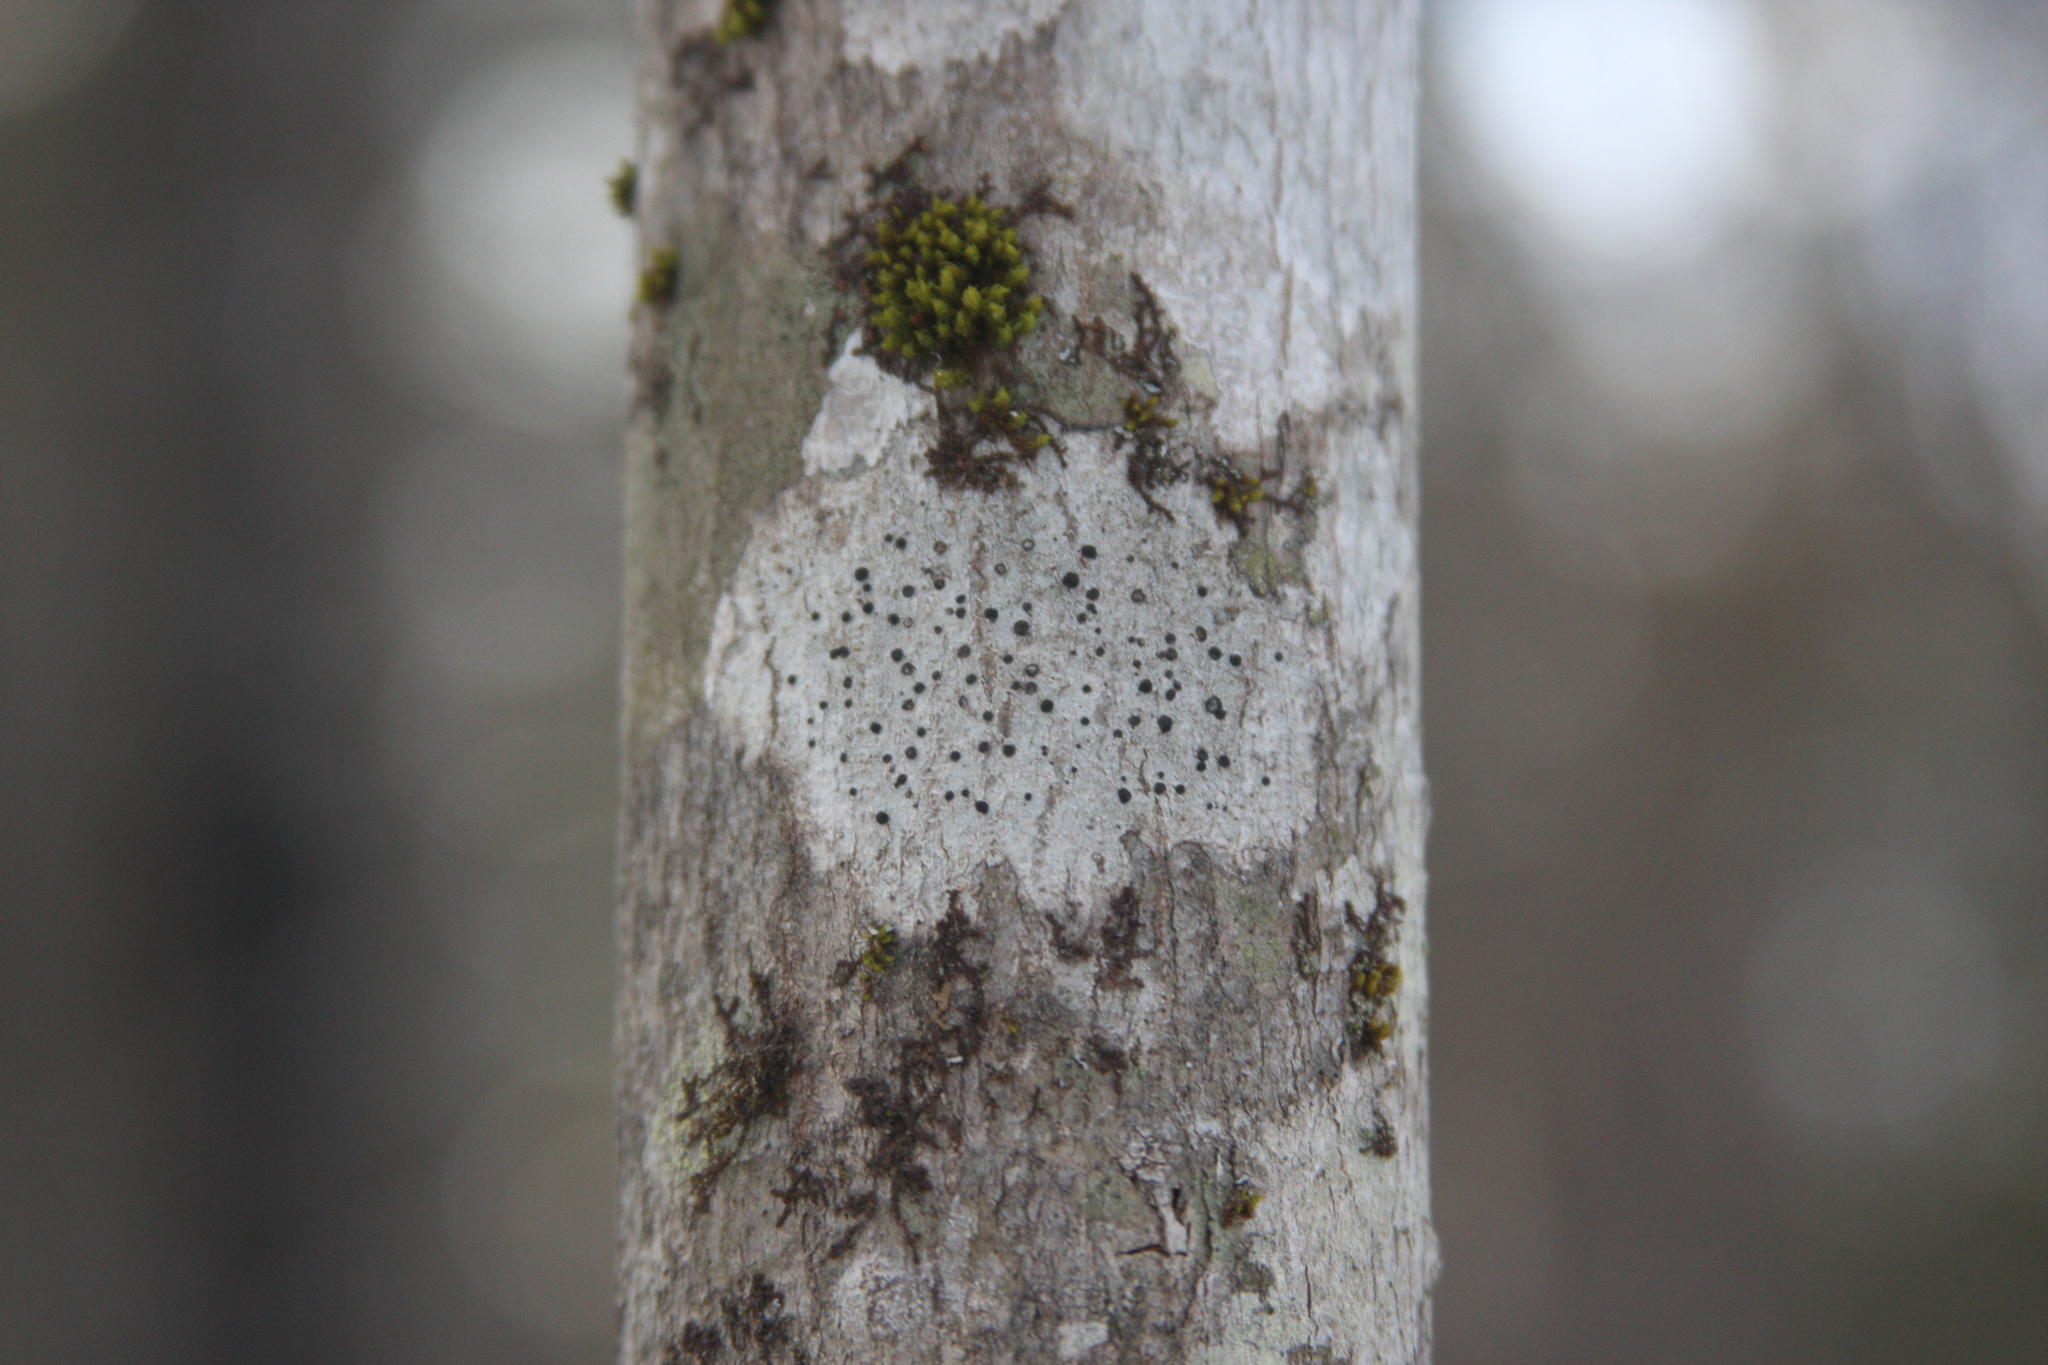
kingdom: Plantae
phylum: Bryophyta
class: Bryopsida
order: Orthotrichales
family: Orthotrichaceae
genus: Ulota
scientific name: Ulota crispa
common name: Crisped pincushion moss
